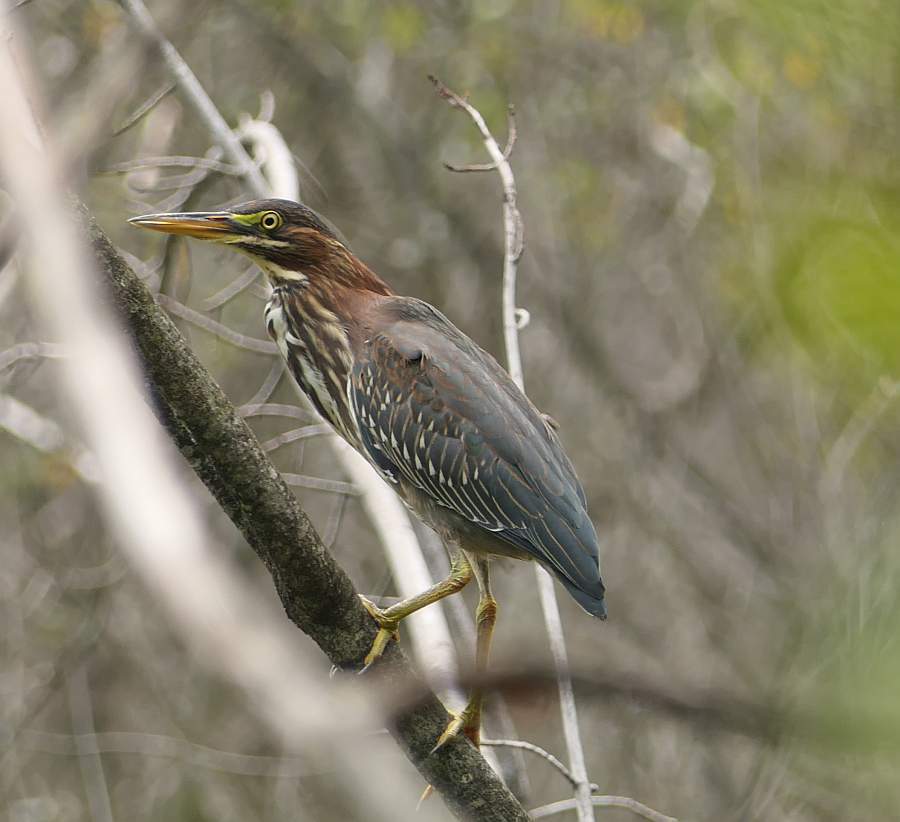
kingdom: Animalia
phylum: Chordata
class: Aves
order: Pelecaniformes
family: Ardeidae
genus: Butorides
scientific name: Butorides virescens
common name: Green heron
